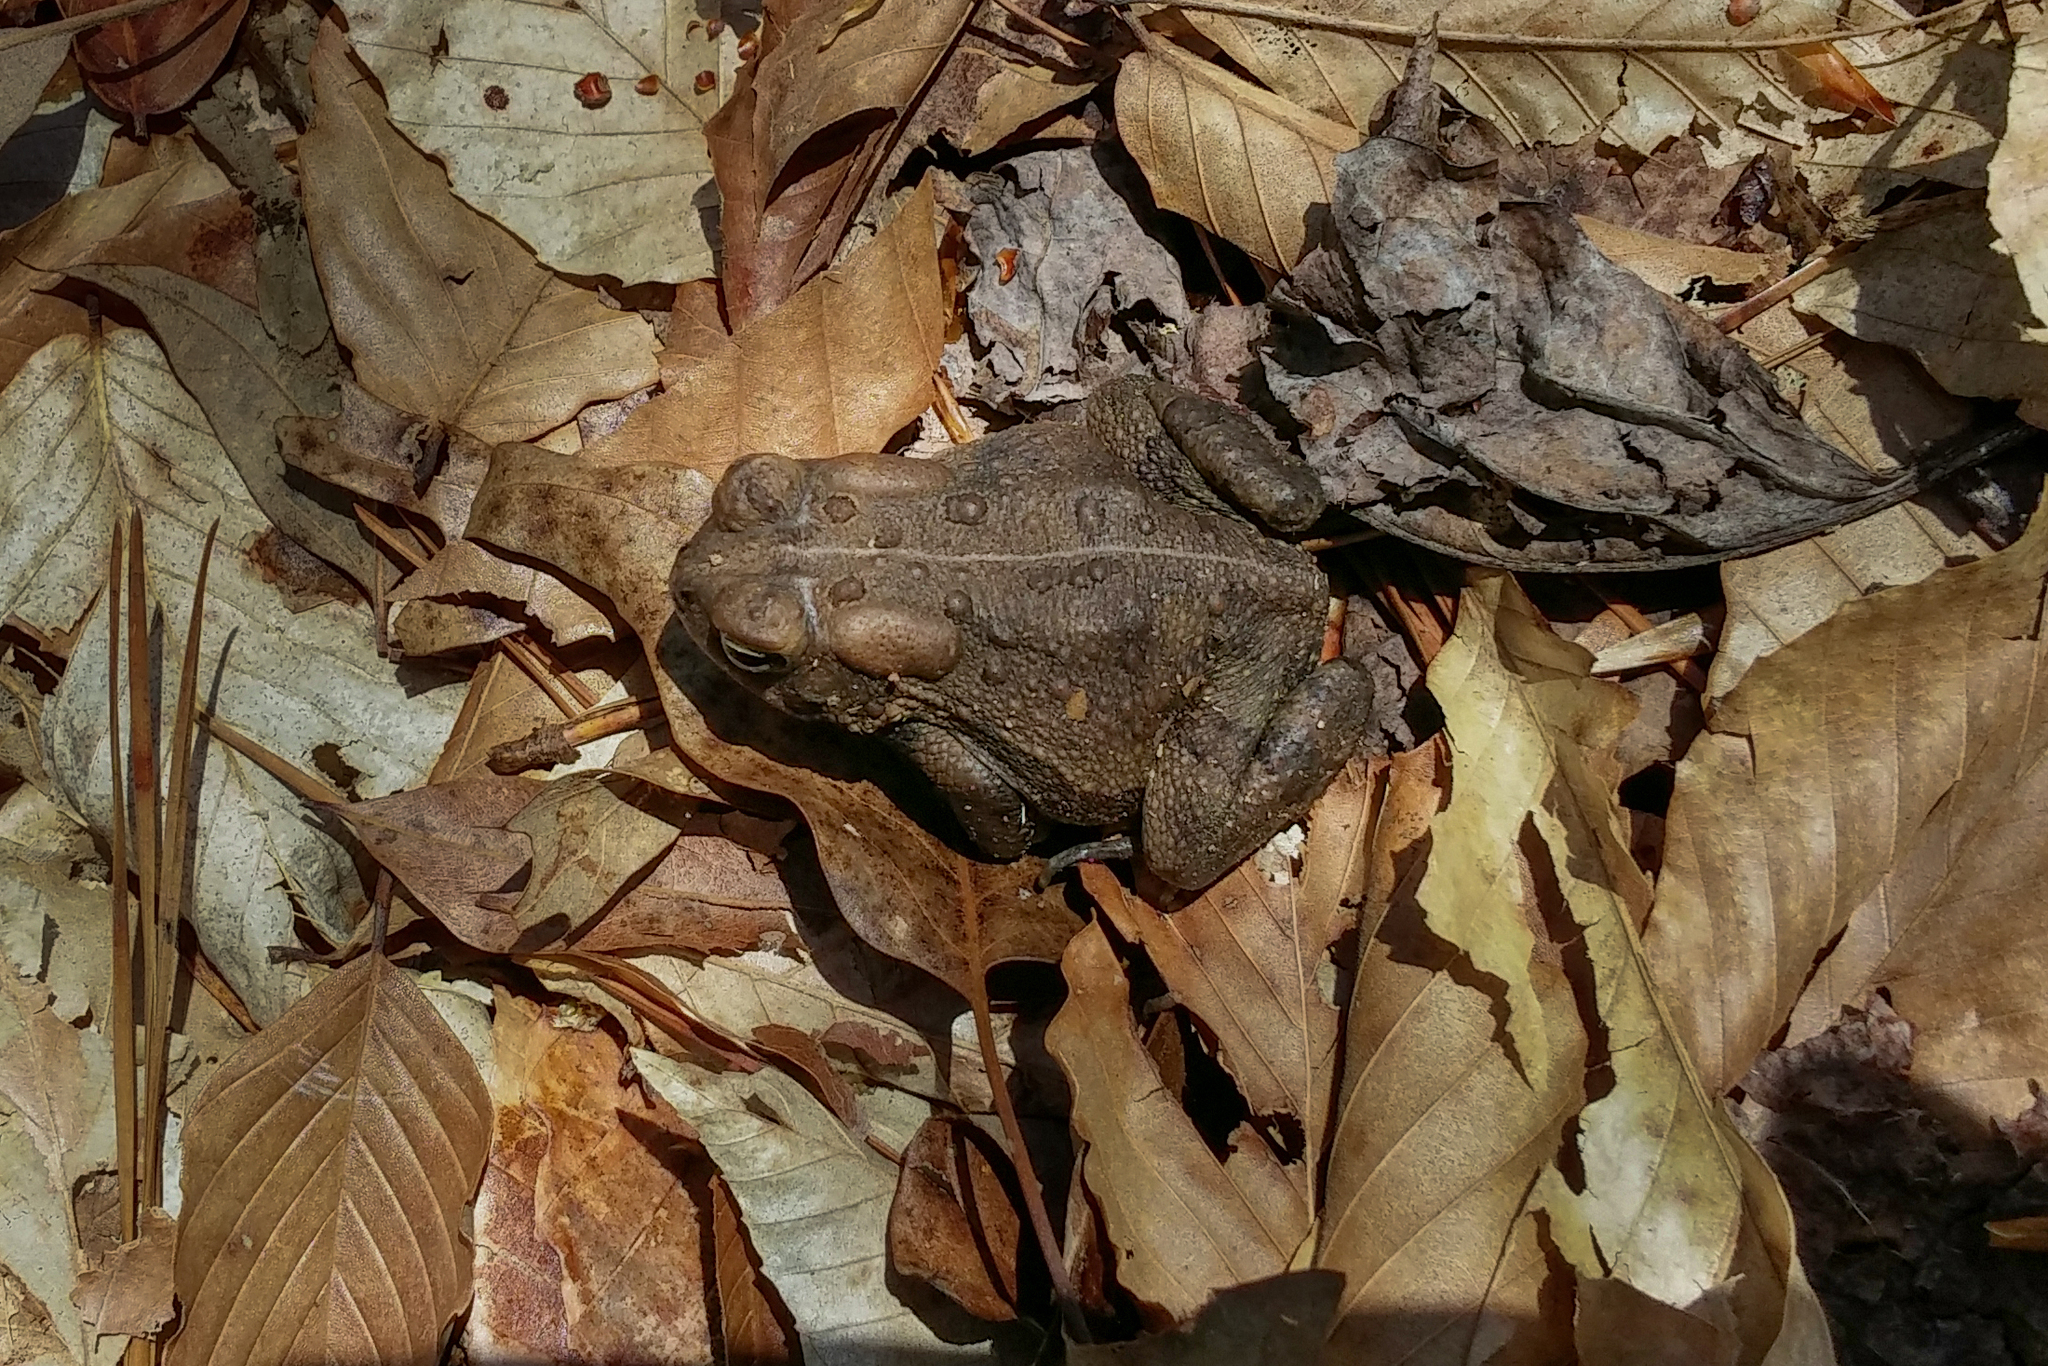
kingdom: Animalia
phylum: Chordata
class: Amphibia
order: Anura
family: Bufonidae
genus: Anaxyrus
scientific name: Anaxyrus fowleri
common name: Fowler's toad
